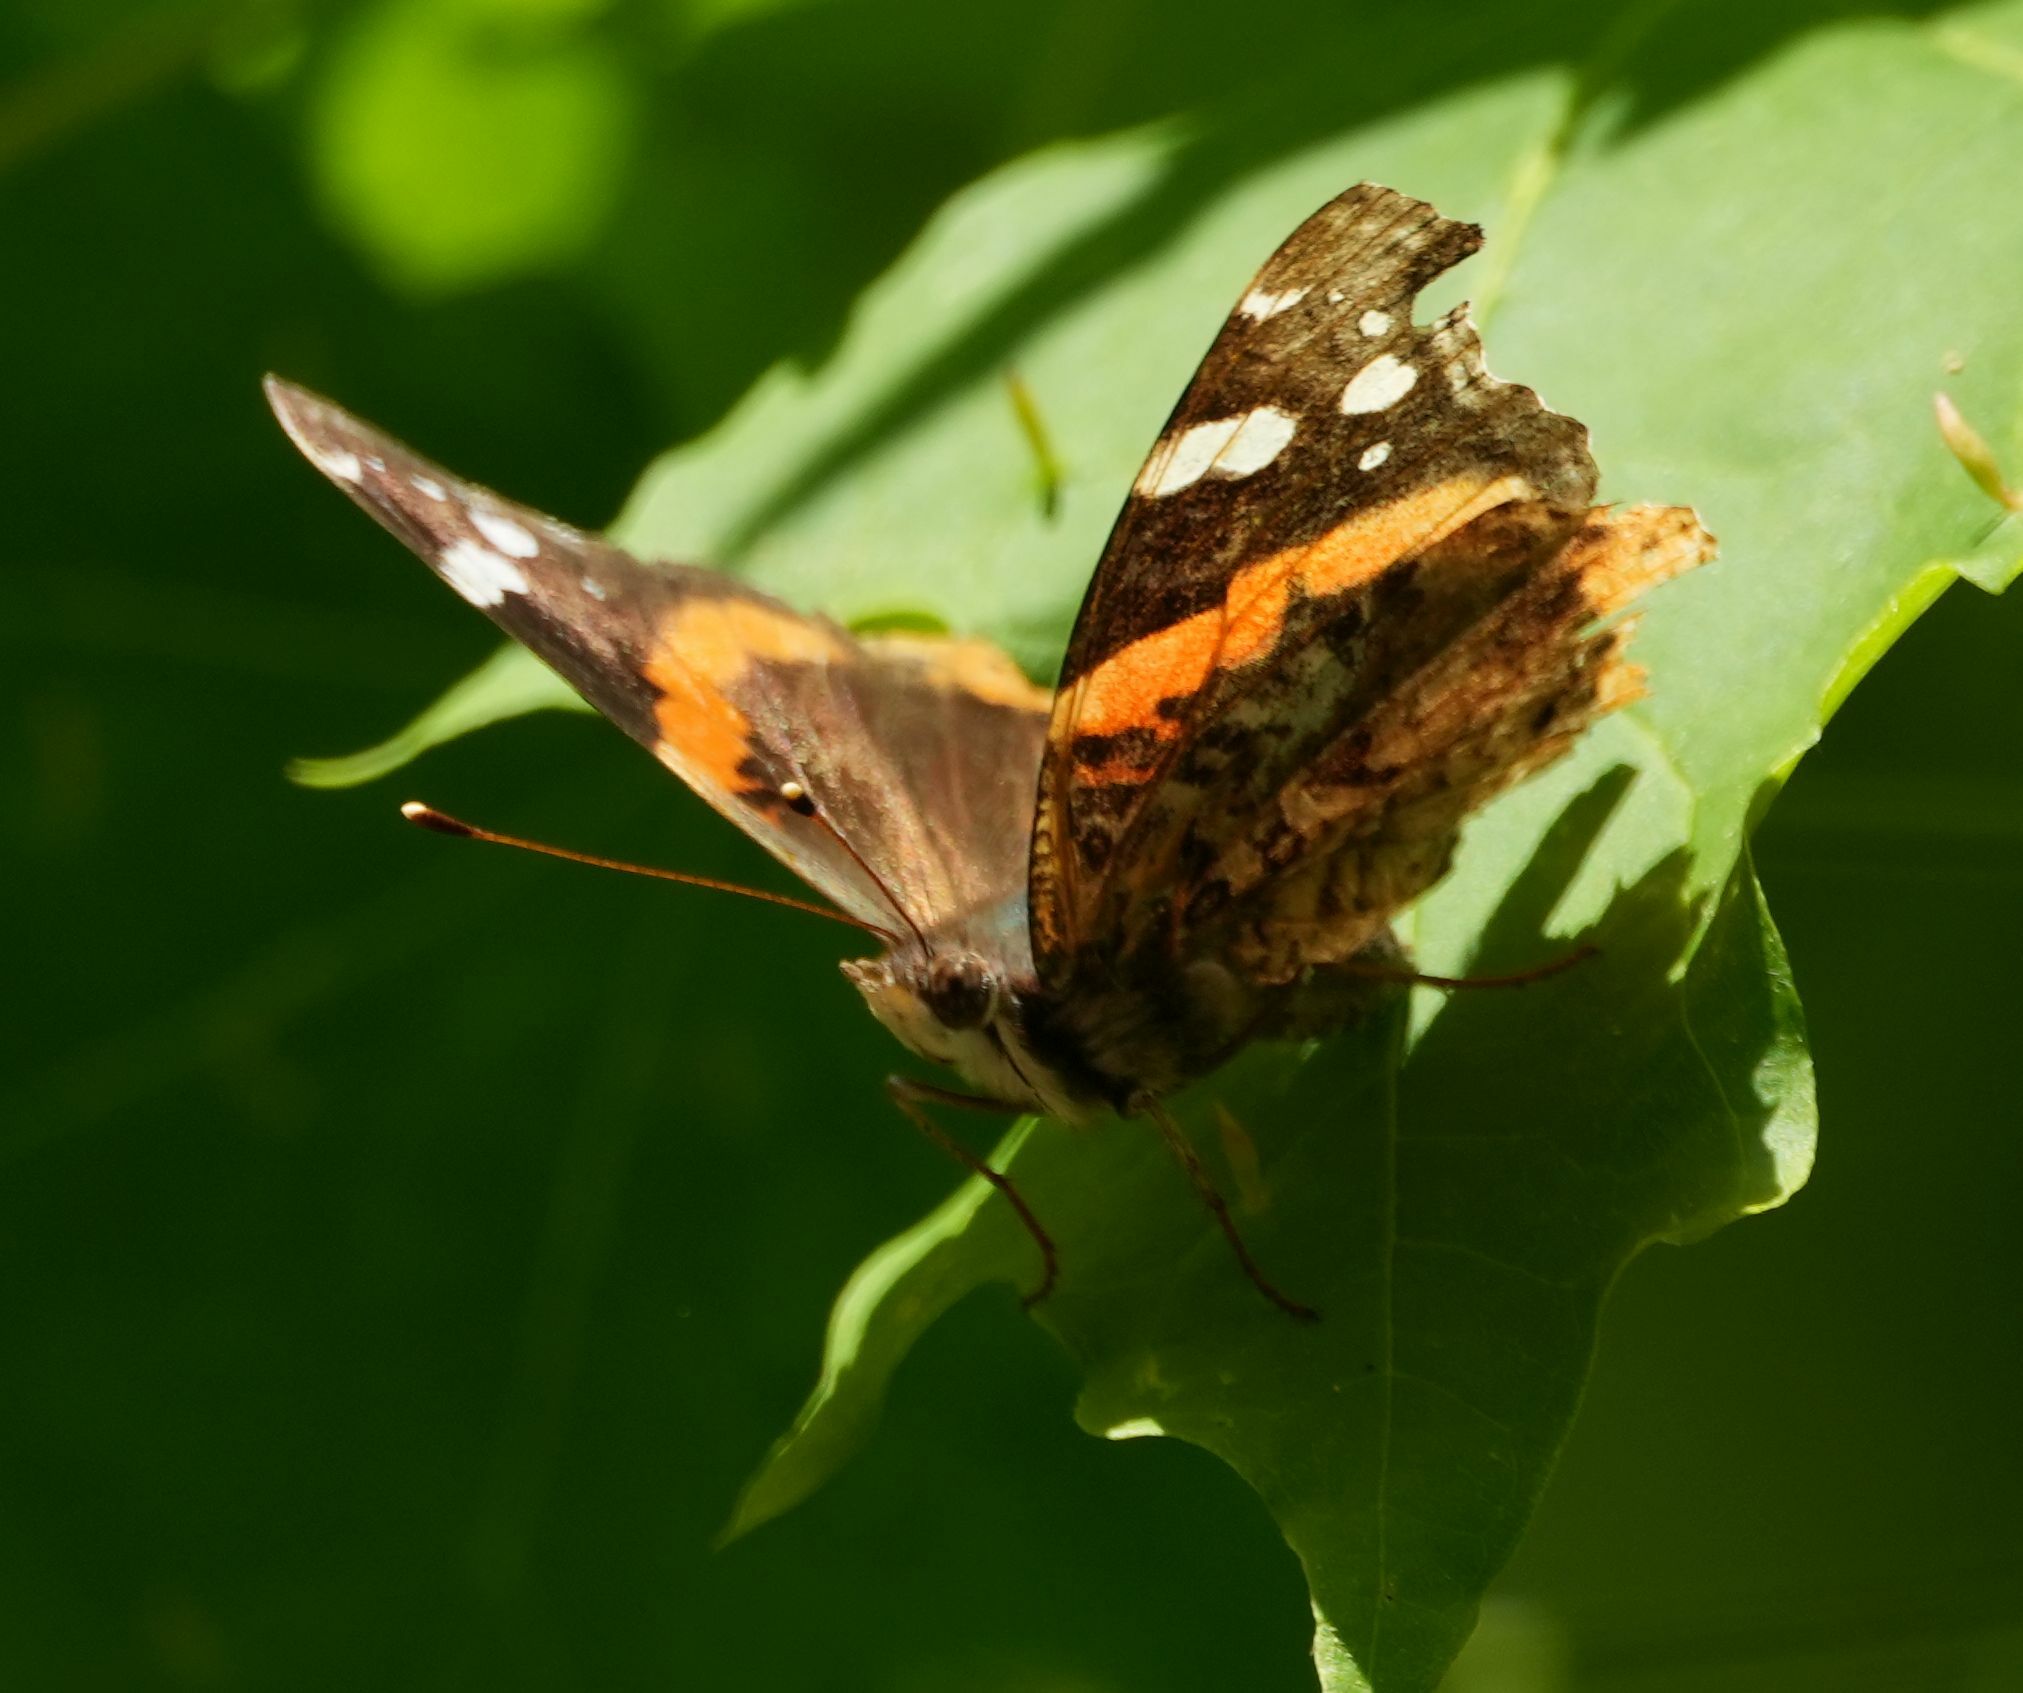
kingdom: Animalia
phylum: Arthropoda
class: Insecta
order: Lepidoptera
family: Nymphalidae
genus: Vanessa
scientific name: Vanessa atalanta
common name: Red admiral
